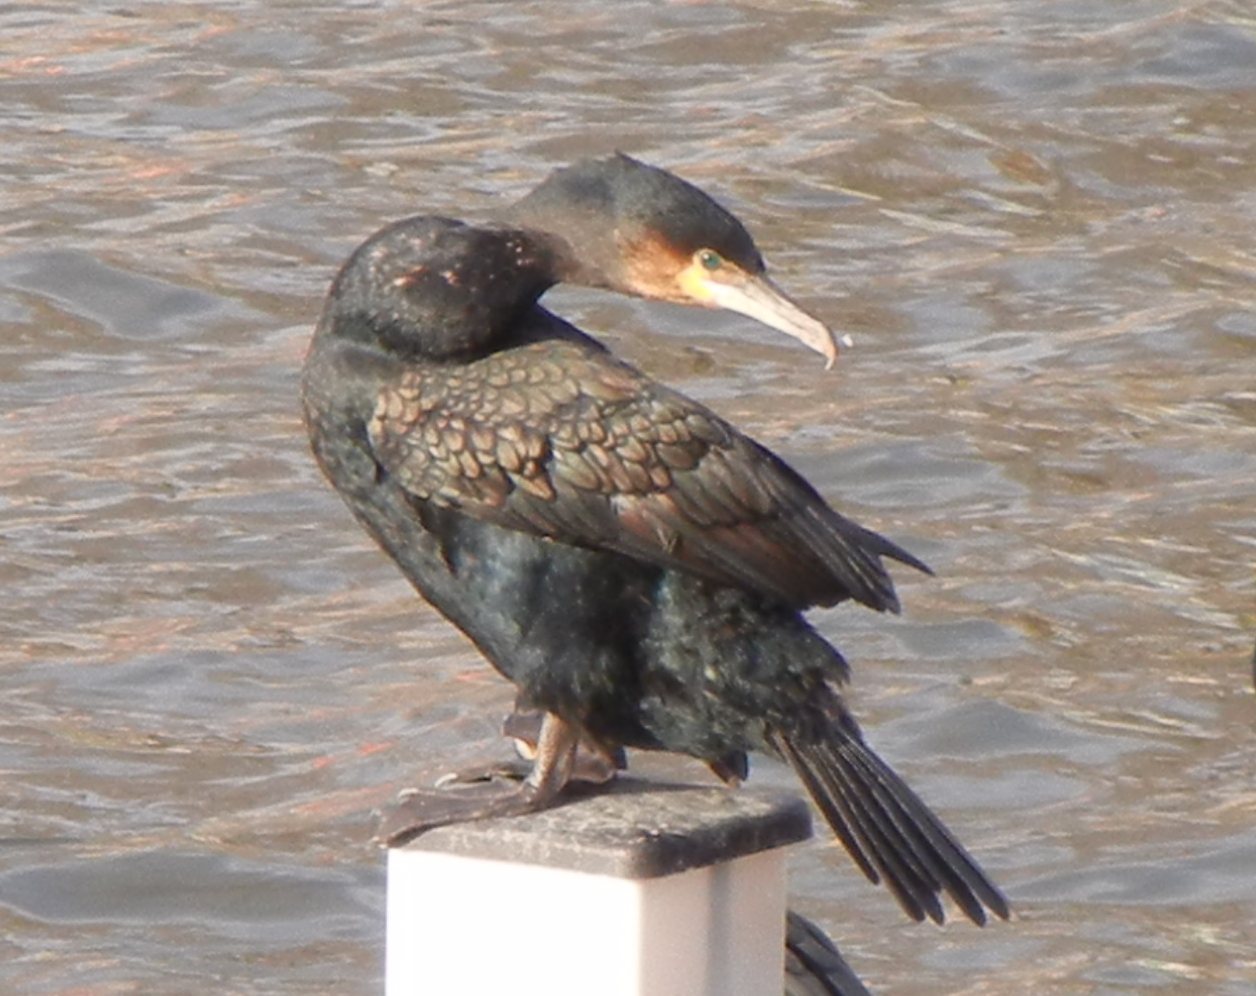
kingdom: Animalia
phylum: Chordata
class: Aves
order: Suliformes
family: Phalacrocoracidae
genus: Phalacrocorax
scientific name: Phalacrocorax carbo
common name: Great cormorant
